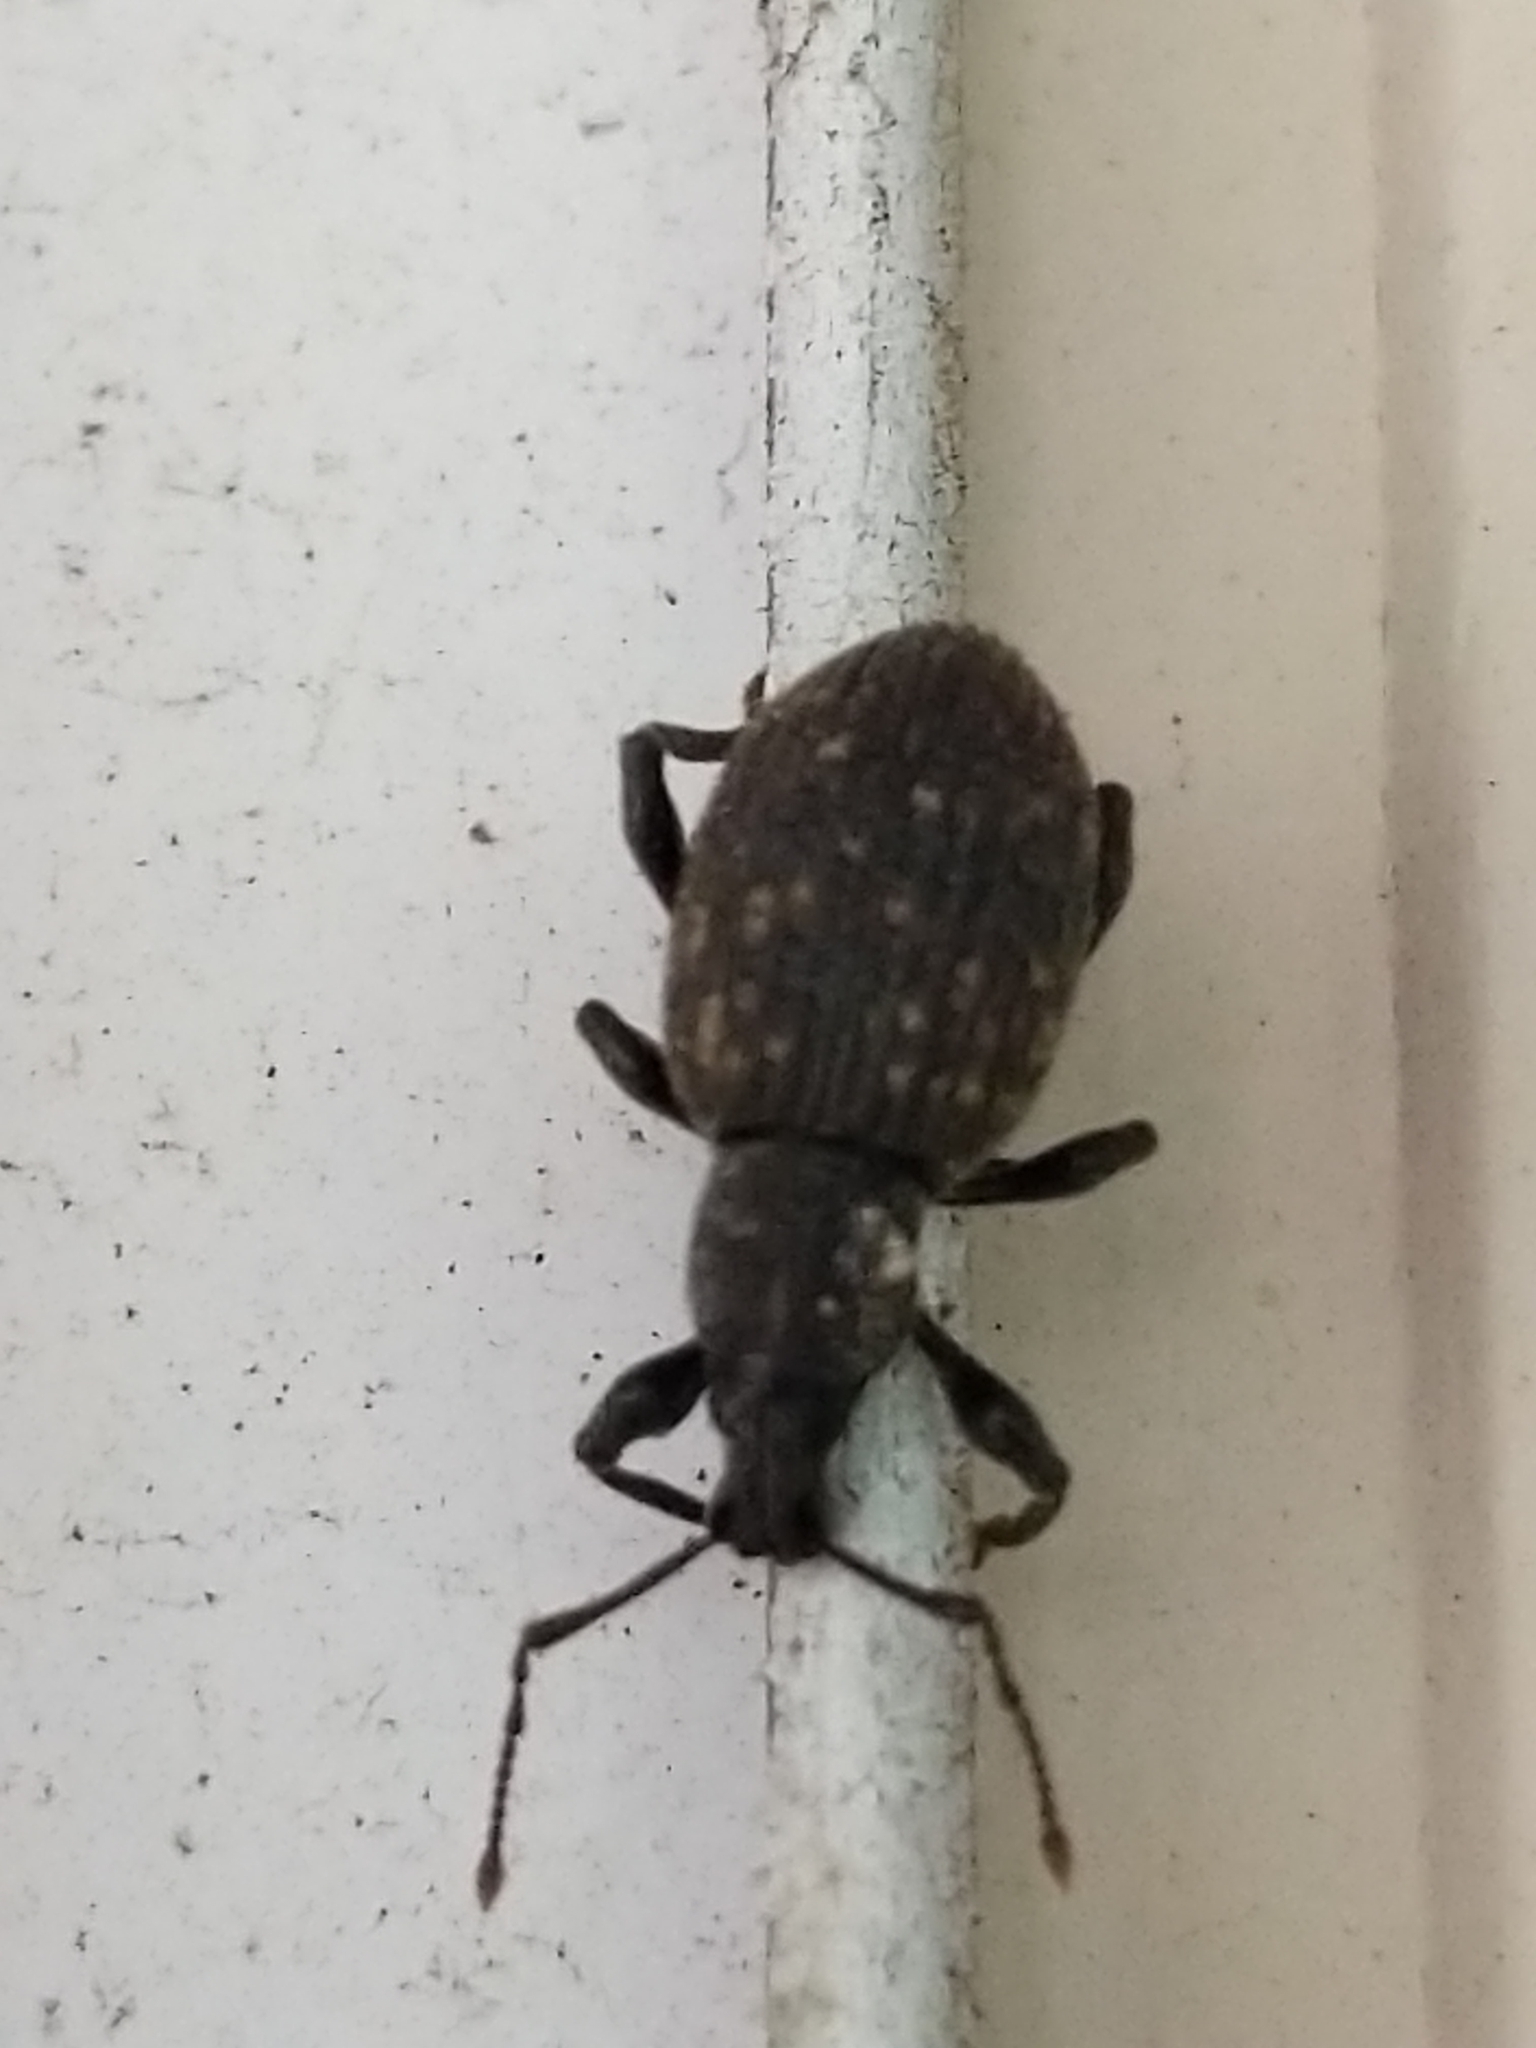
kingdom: Animalia
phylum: Arthropoda
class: Insecta
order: Coleoptera
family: Curculionidae
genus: Otiorhynchus
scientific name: Otiorhynchus sulcatus
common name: Black vine weevil
